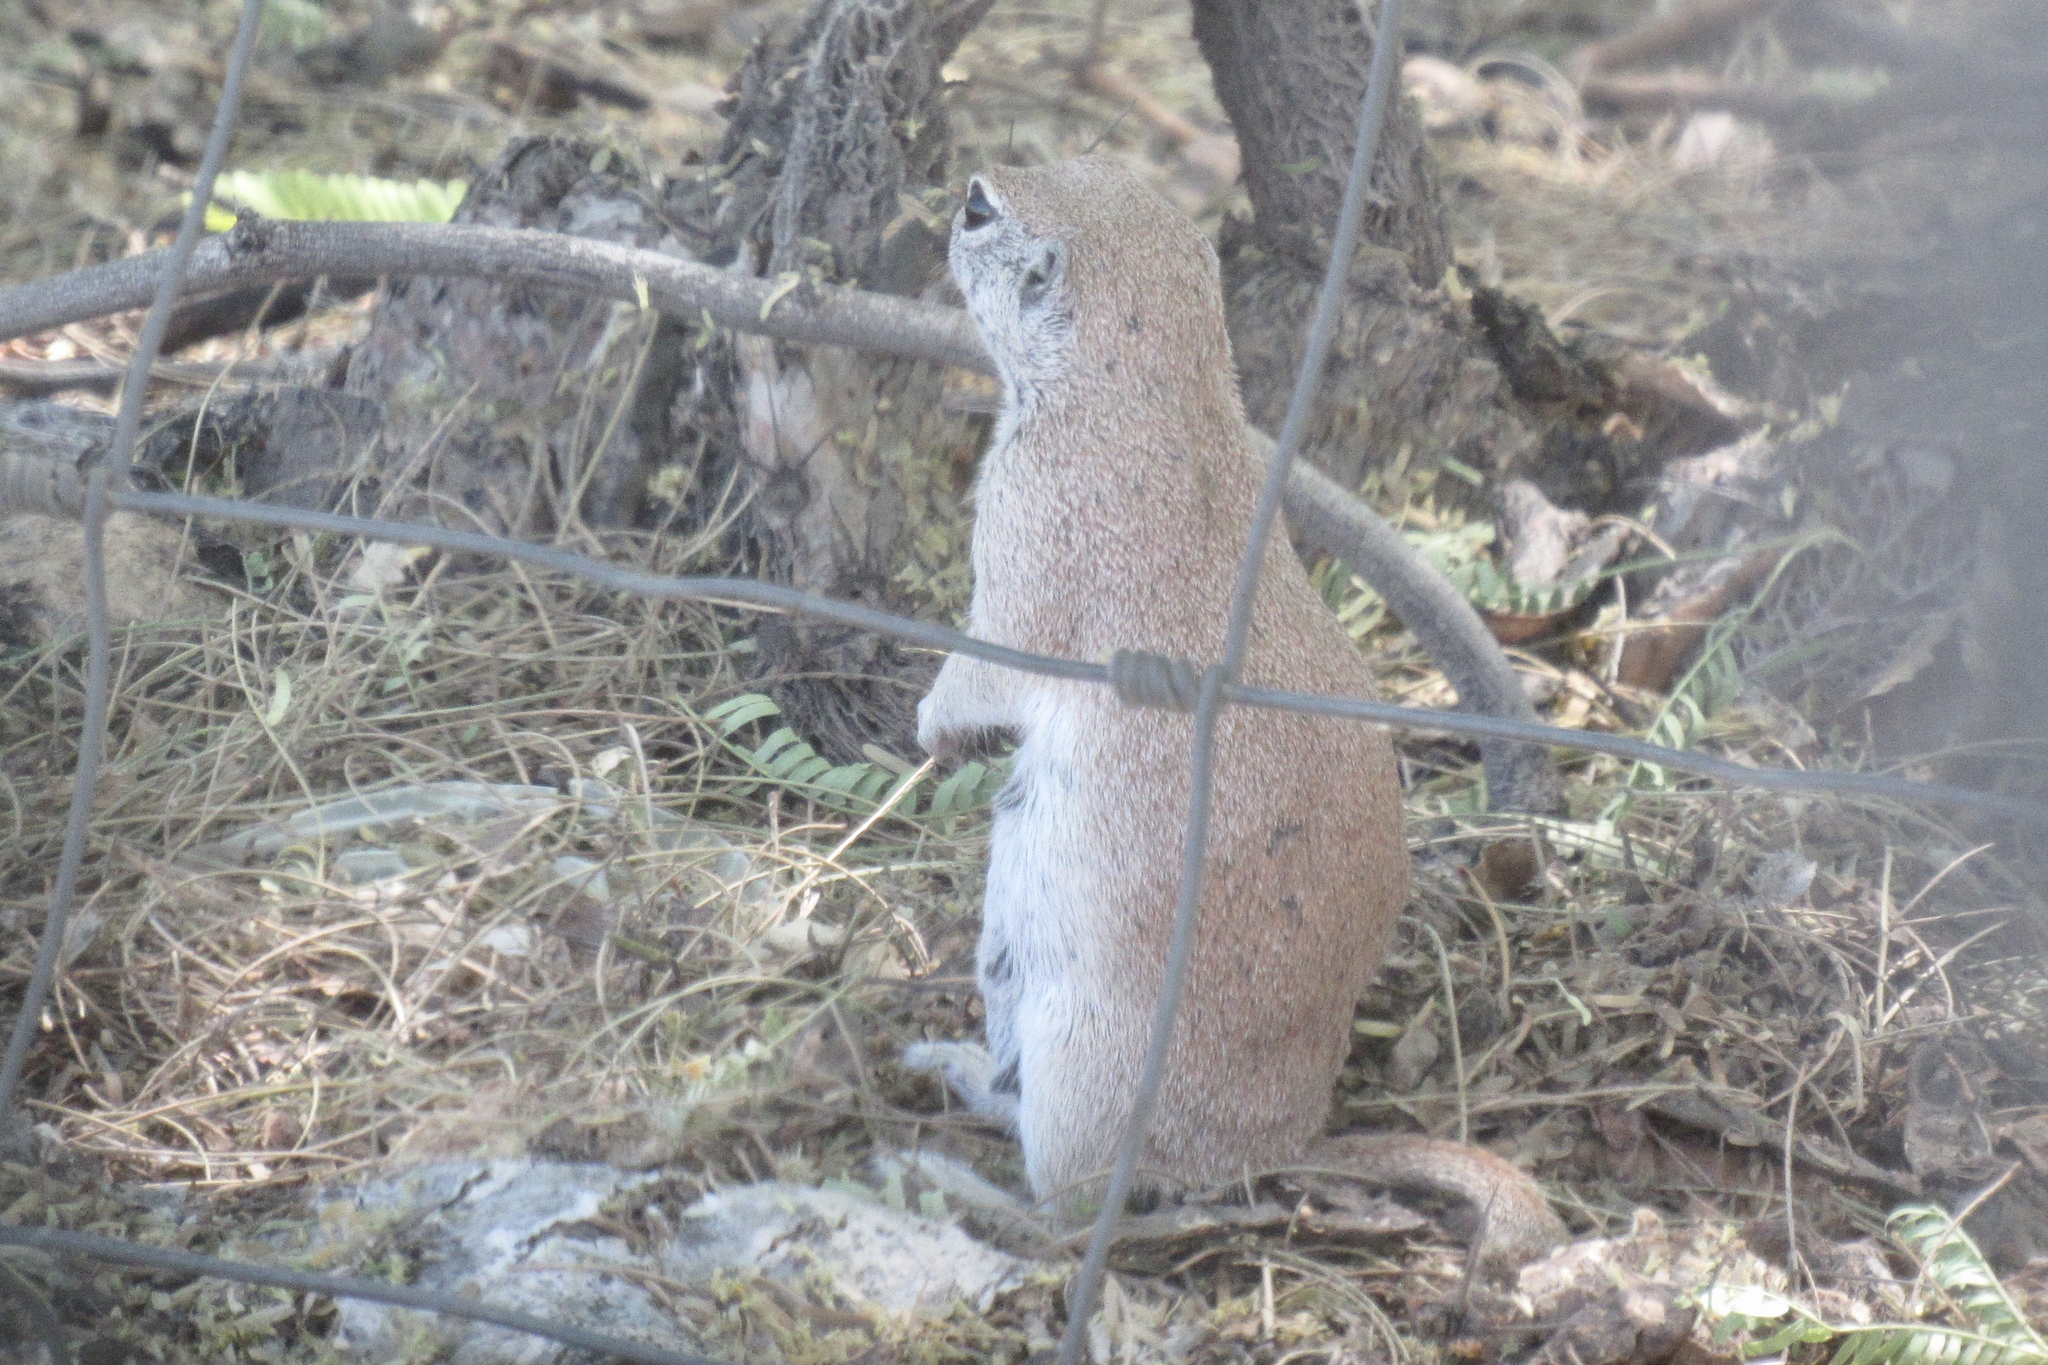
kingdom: Animalia
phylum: Chordata
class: Mammalia
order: Rodentia
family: Sciuridae
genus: Xerospermophilus
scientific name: Xerospermophilus tereticaudus
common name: Round-tailed ground squirrel
